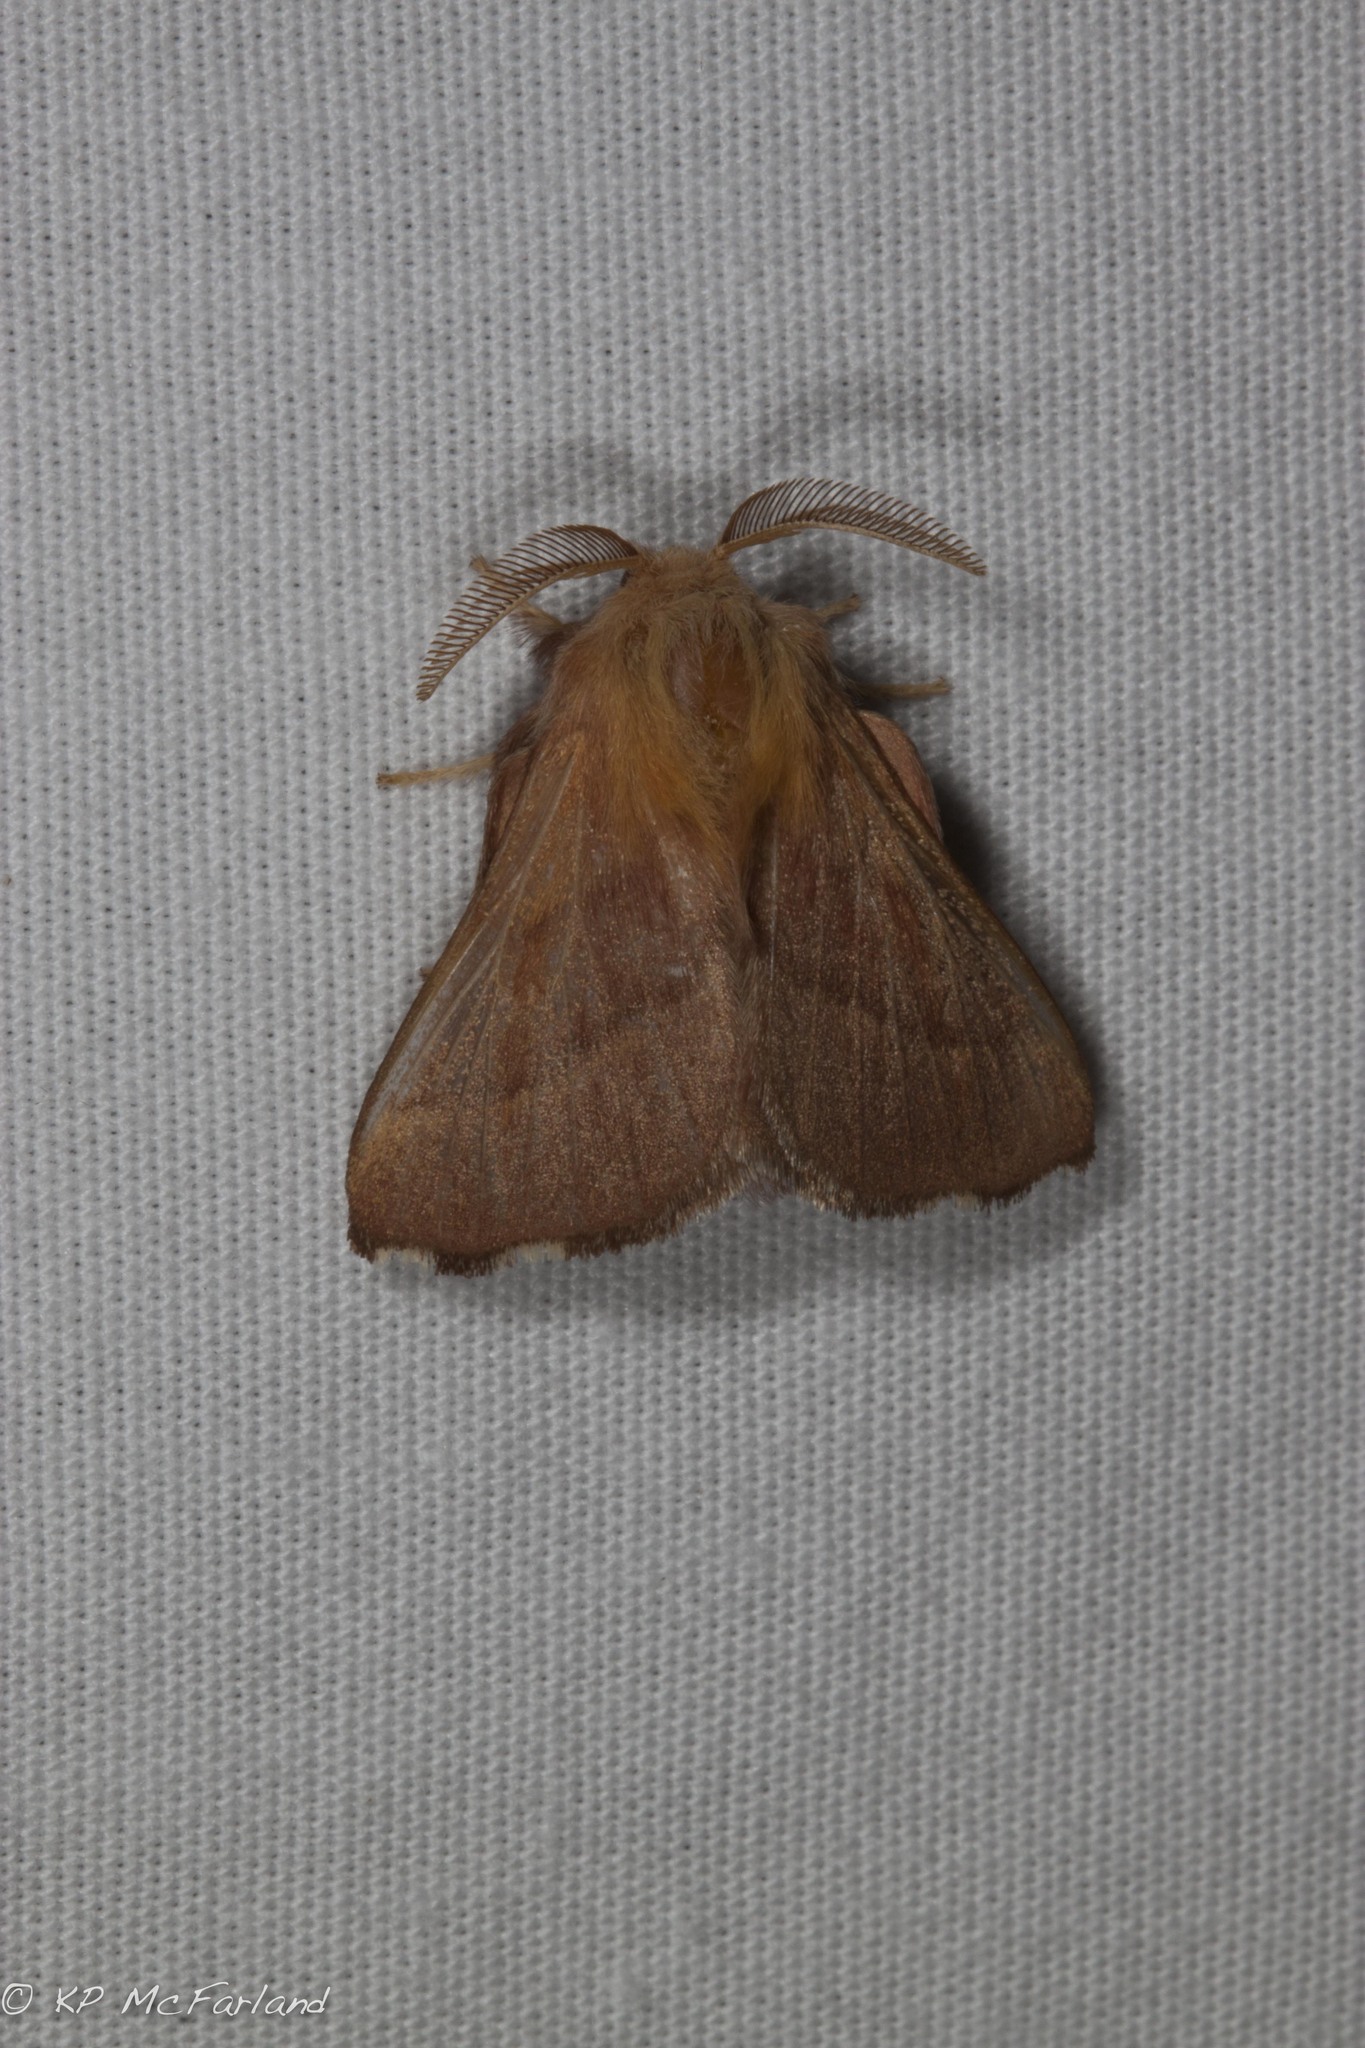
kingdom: Animalia
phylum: Arthropoda
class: Insecta
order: Lepidoptera
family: Lasiocampidae
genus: Malacosoma
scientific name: Malacosoma disstria
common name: Forest tent caterpillar
